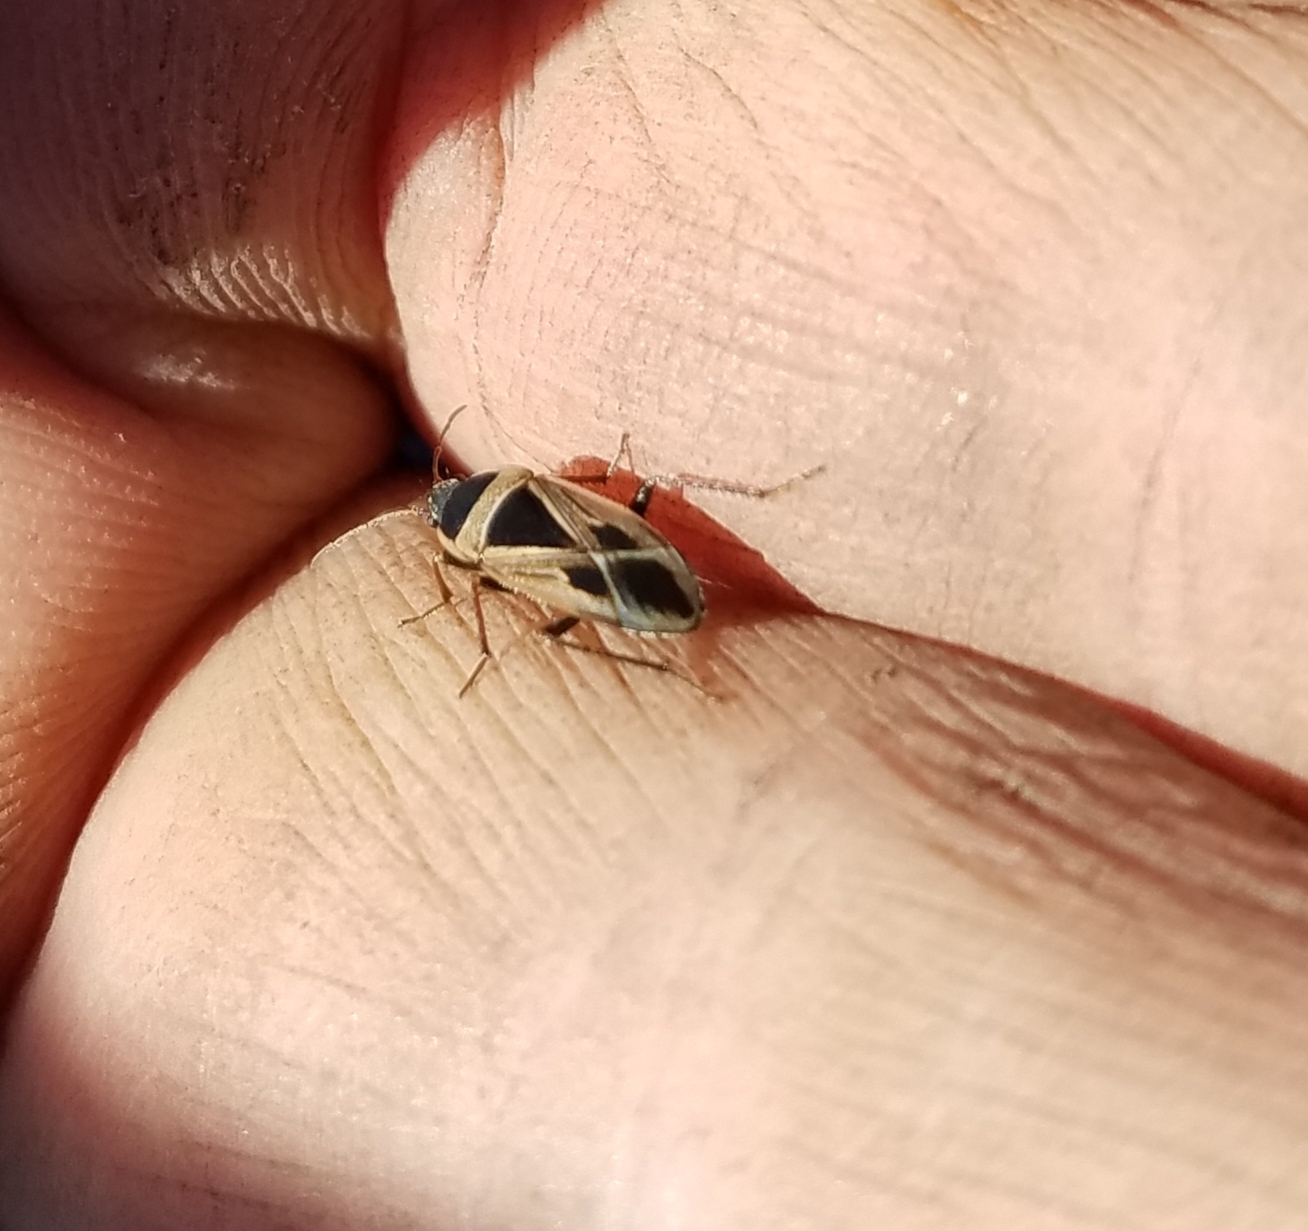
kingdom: Animalia
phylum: Arthropoda
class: Insecta
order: Hemiptera
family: Rhyparochromidae
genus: Xanthochilus
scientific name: Xanthochilus saturnius
